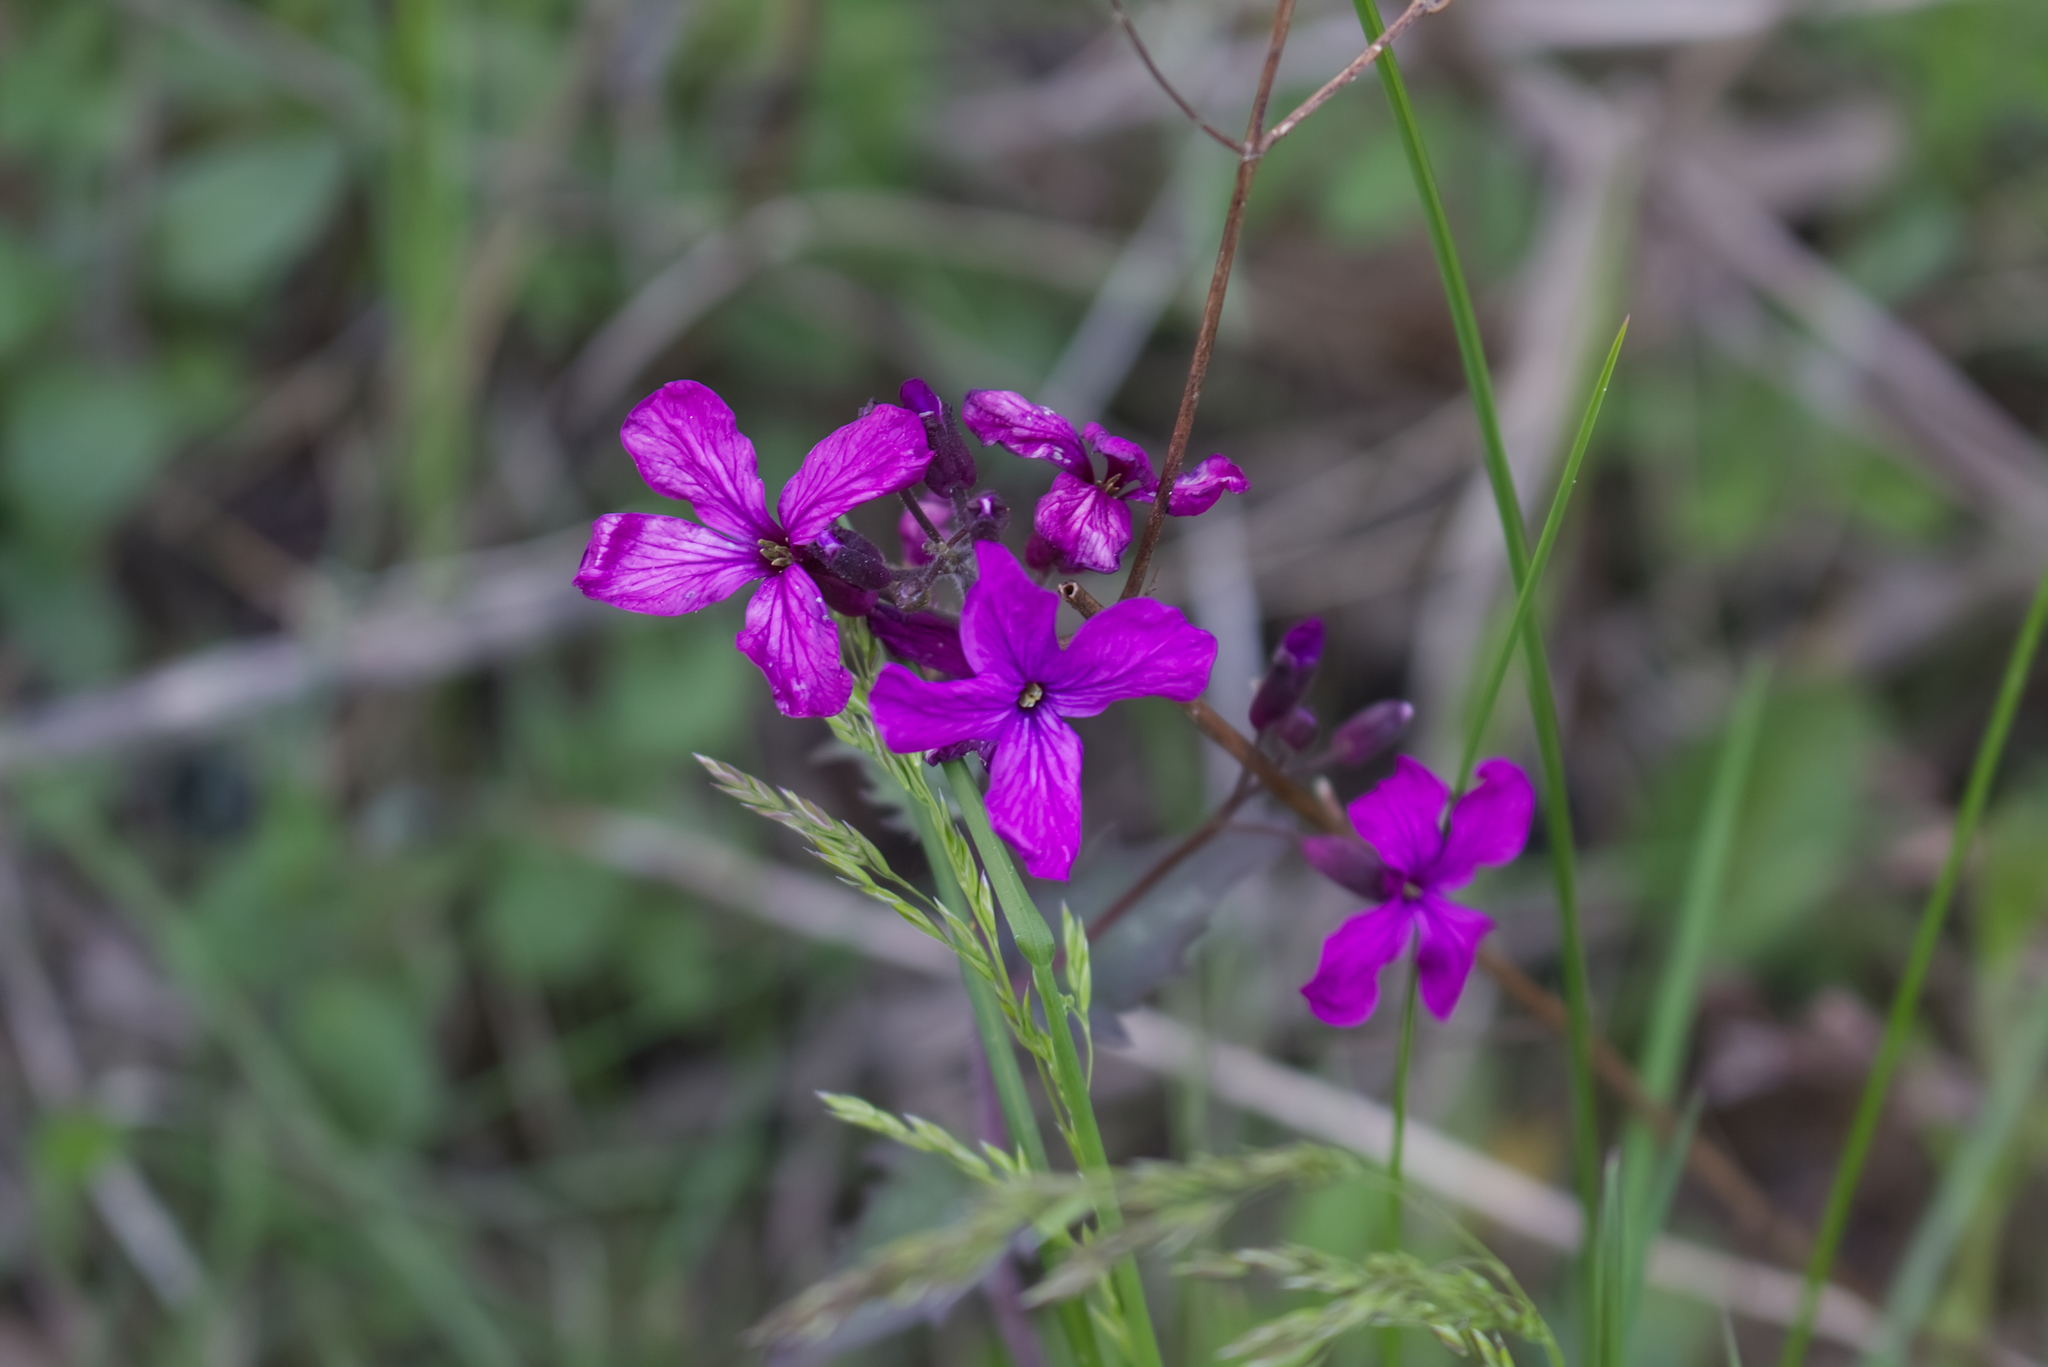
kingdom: Plantae
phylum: Tracheophyta
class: Magnoliopsida
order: Brassicales
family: Brassicaceae
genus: Lunaria
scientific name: Lunaria annua
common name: Honesty
